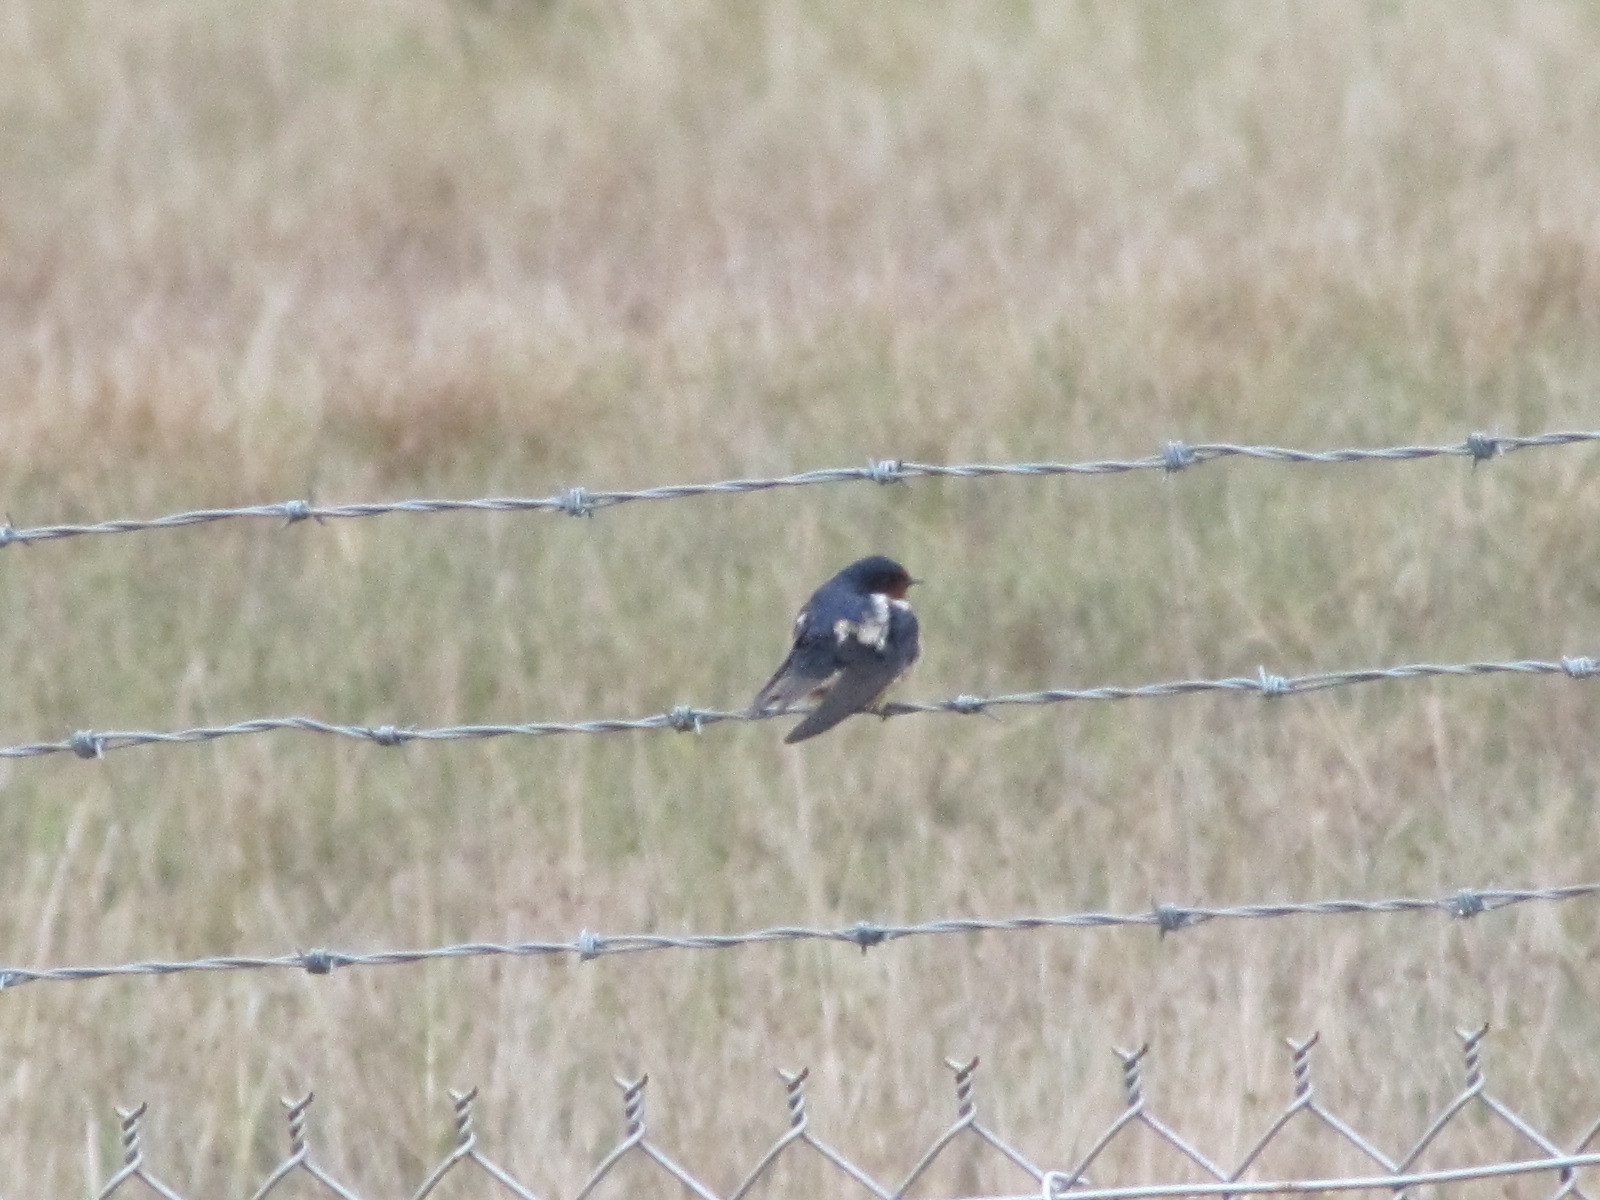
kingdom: Animalia
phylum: Chordata
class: Aves
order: Passeriformes
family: Hirundinidae
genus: Hirundo
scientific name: Hirundo rustica
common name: Barn swallow
